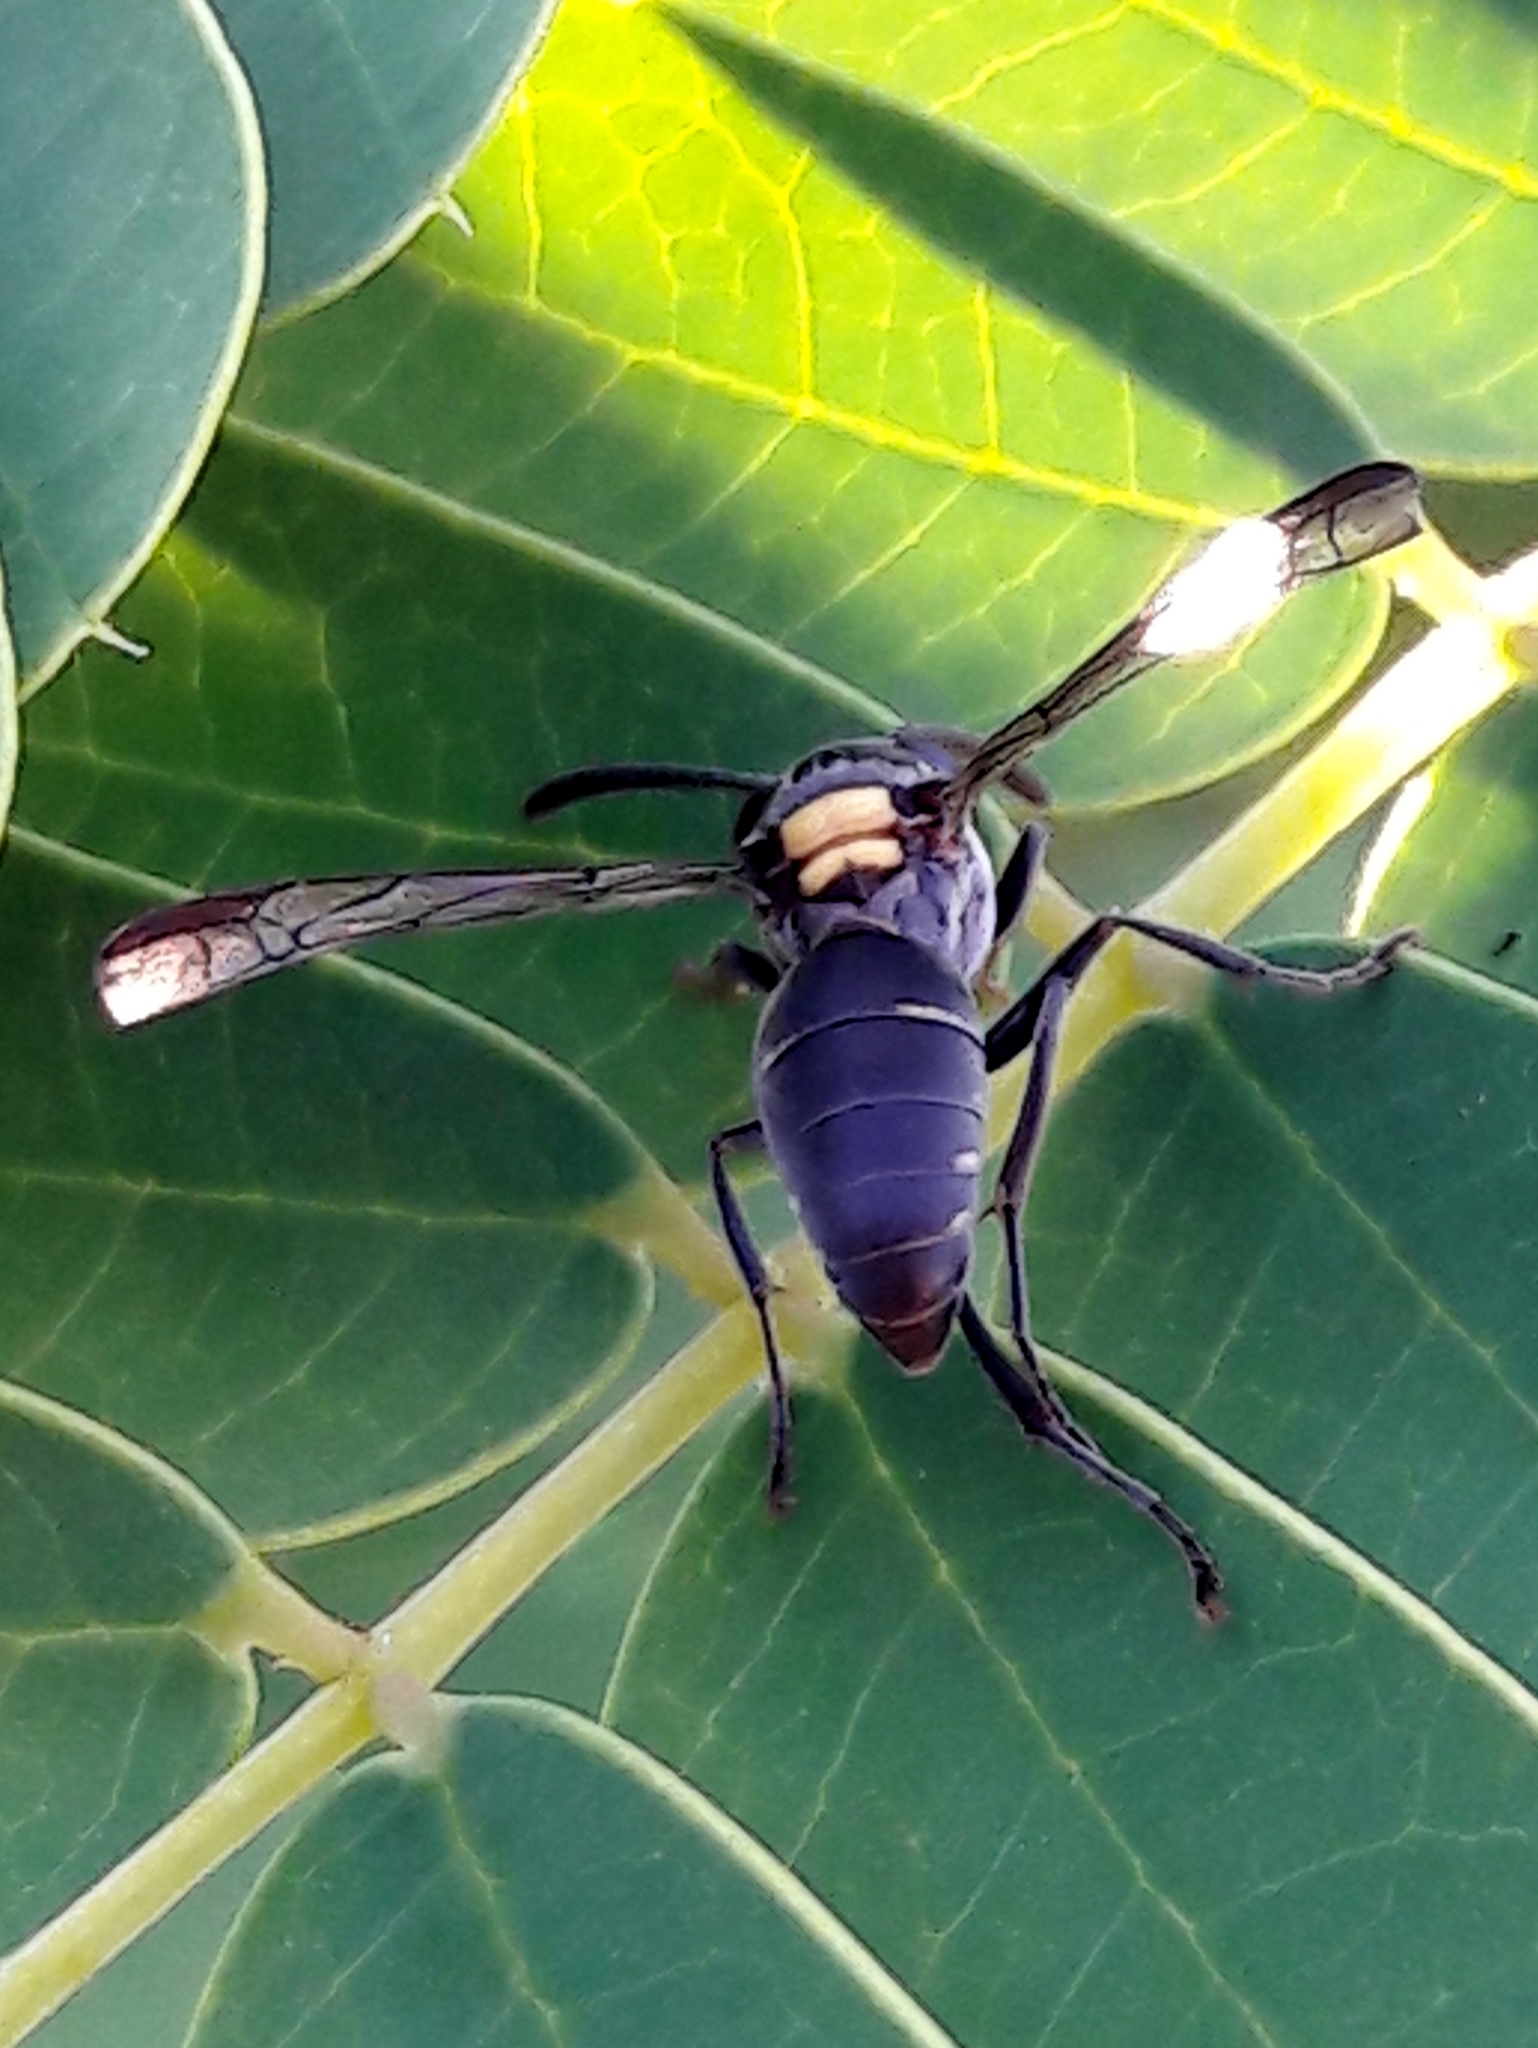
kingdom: Animalia
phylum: Arthropoda
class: Insecta
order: Hymenoptera
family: Eumenidae
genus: Polybia
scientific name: Polybia paulista
